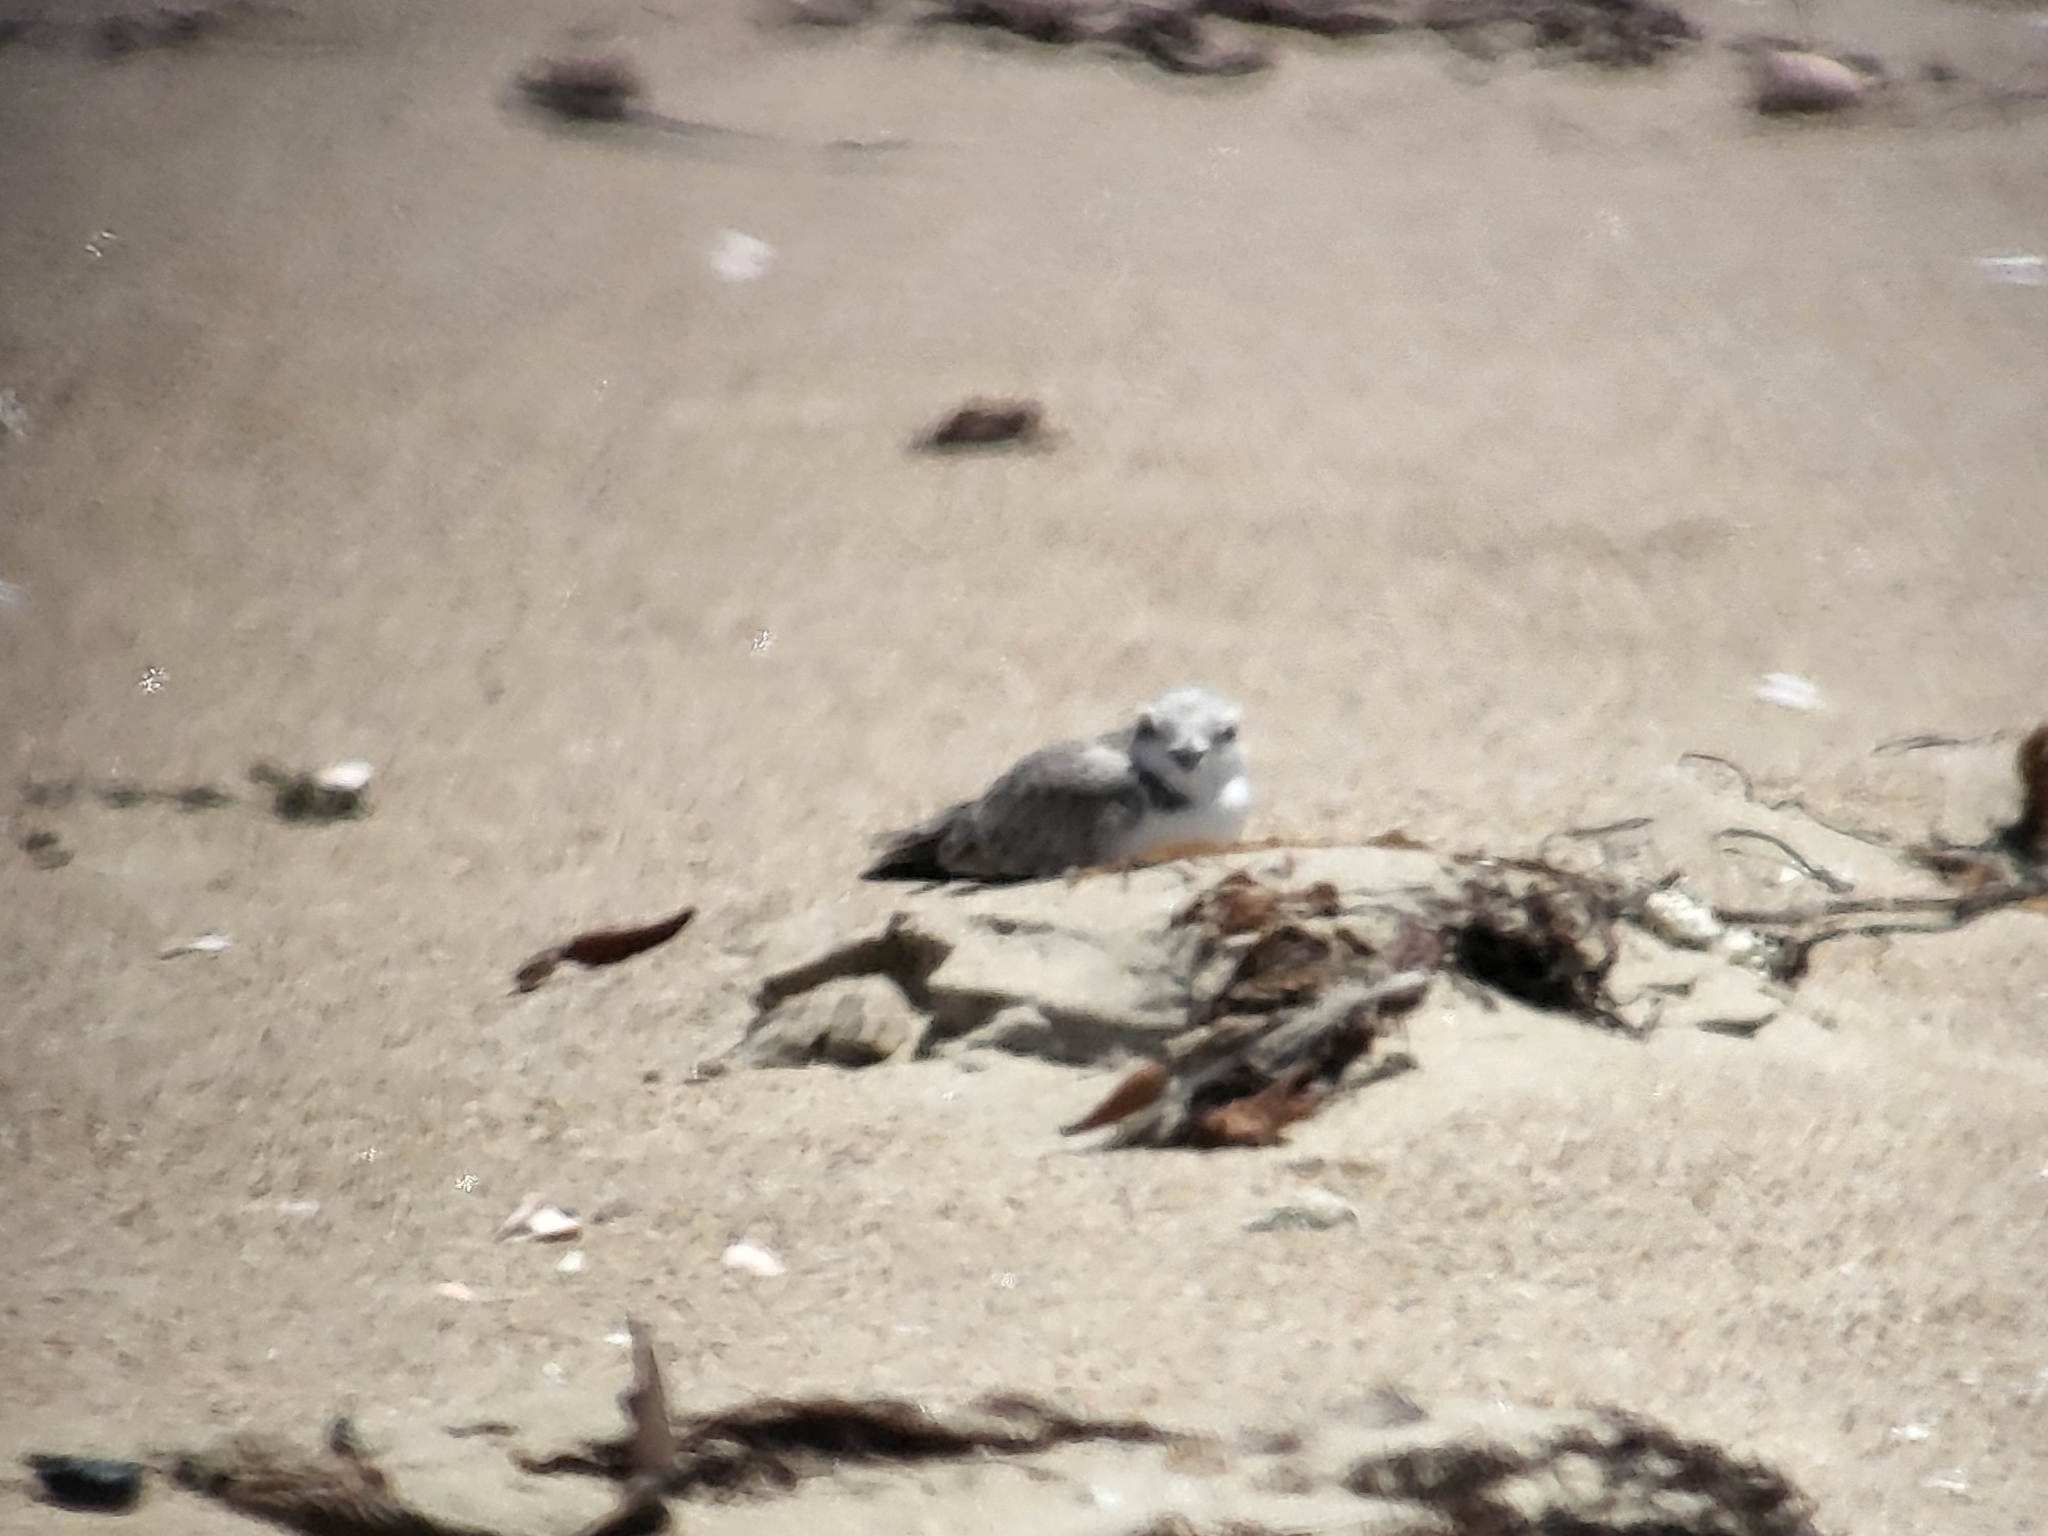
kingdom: Animalia
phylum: Chordata
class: Aves
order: Charadriiformes
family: Charadriidae
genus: Anarhynchus
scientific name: Anarhynchus
